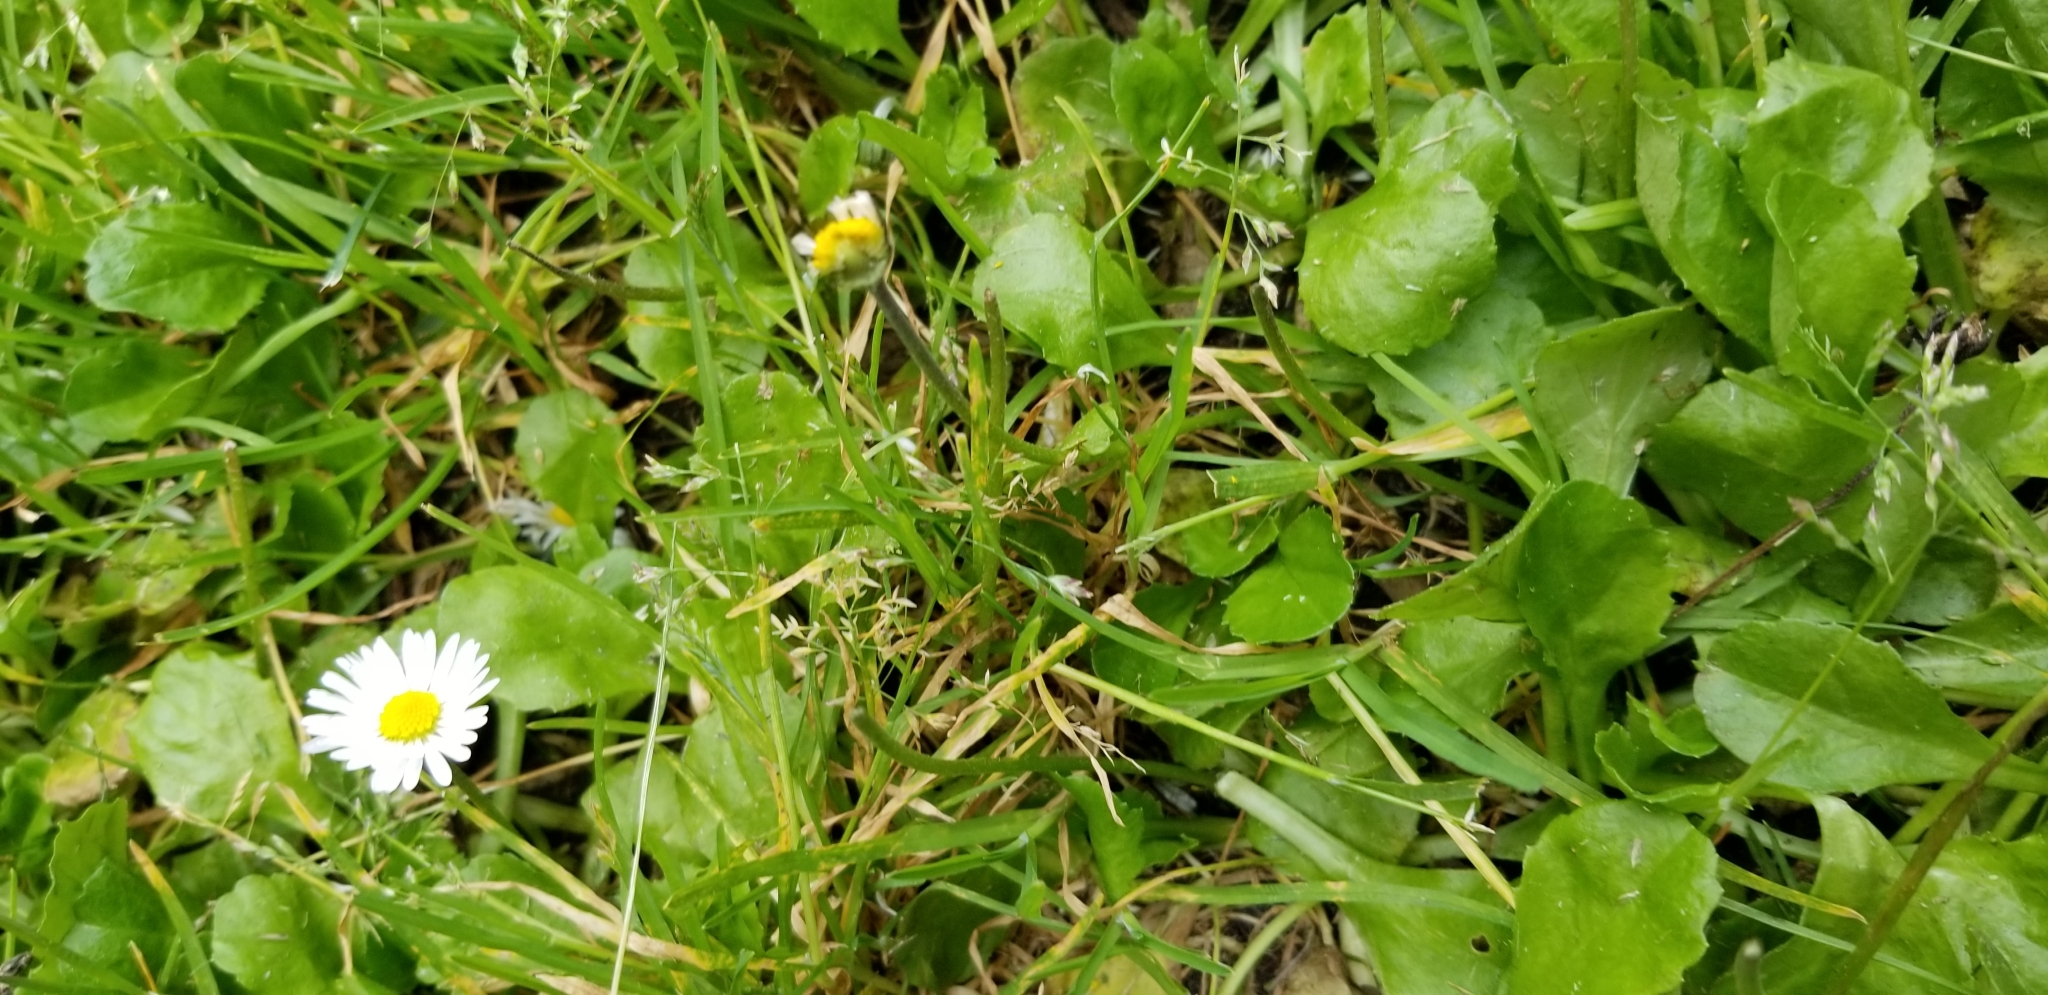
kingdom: Plantae
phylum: Tracheophyta
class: Magnoliopsida
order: Asterales
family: Asteraceae
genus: Bellis
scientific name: Bellis perennis
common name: Lawndaisy
